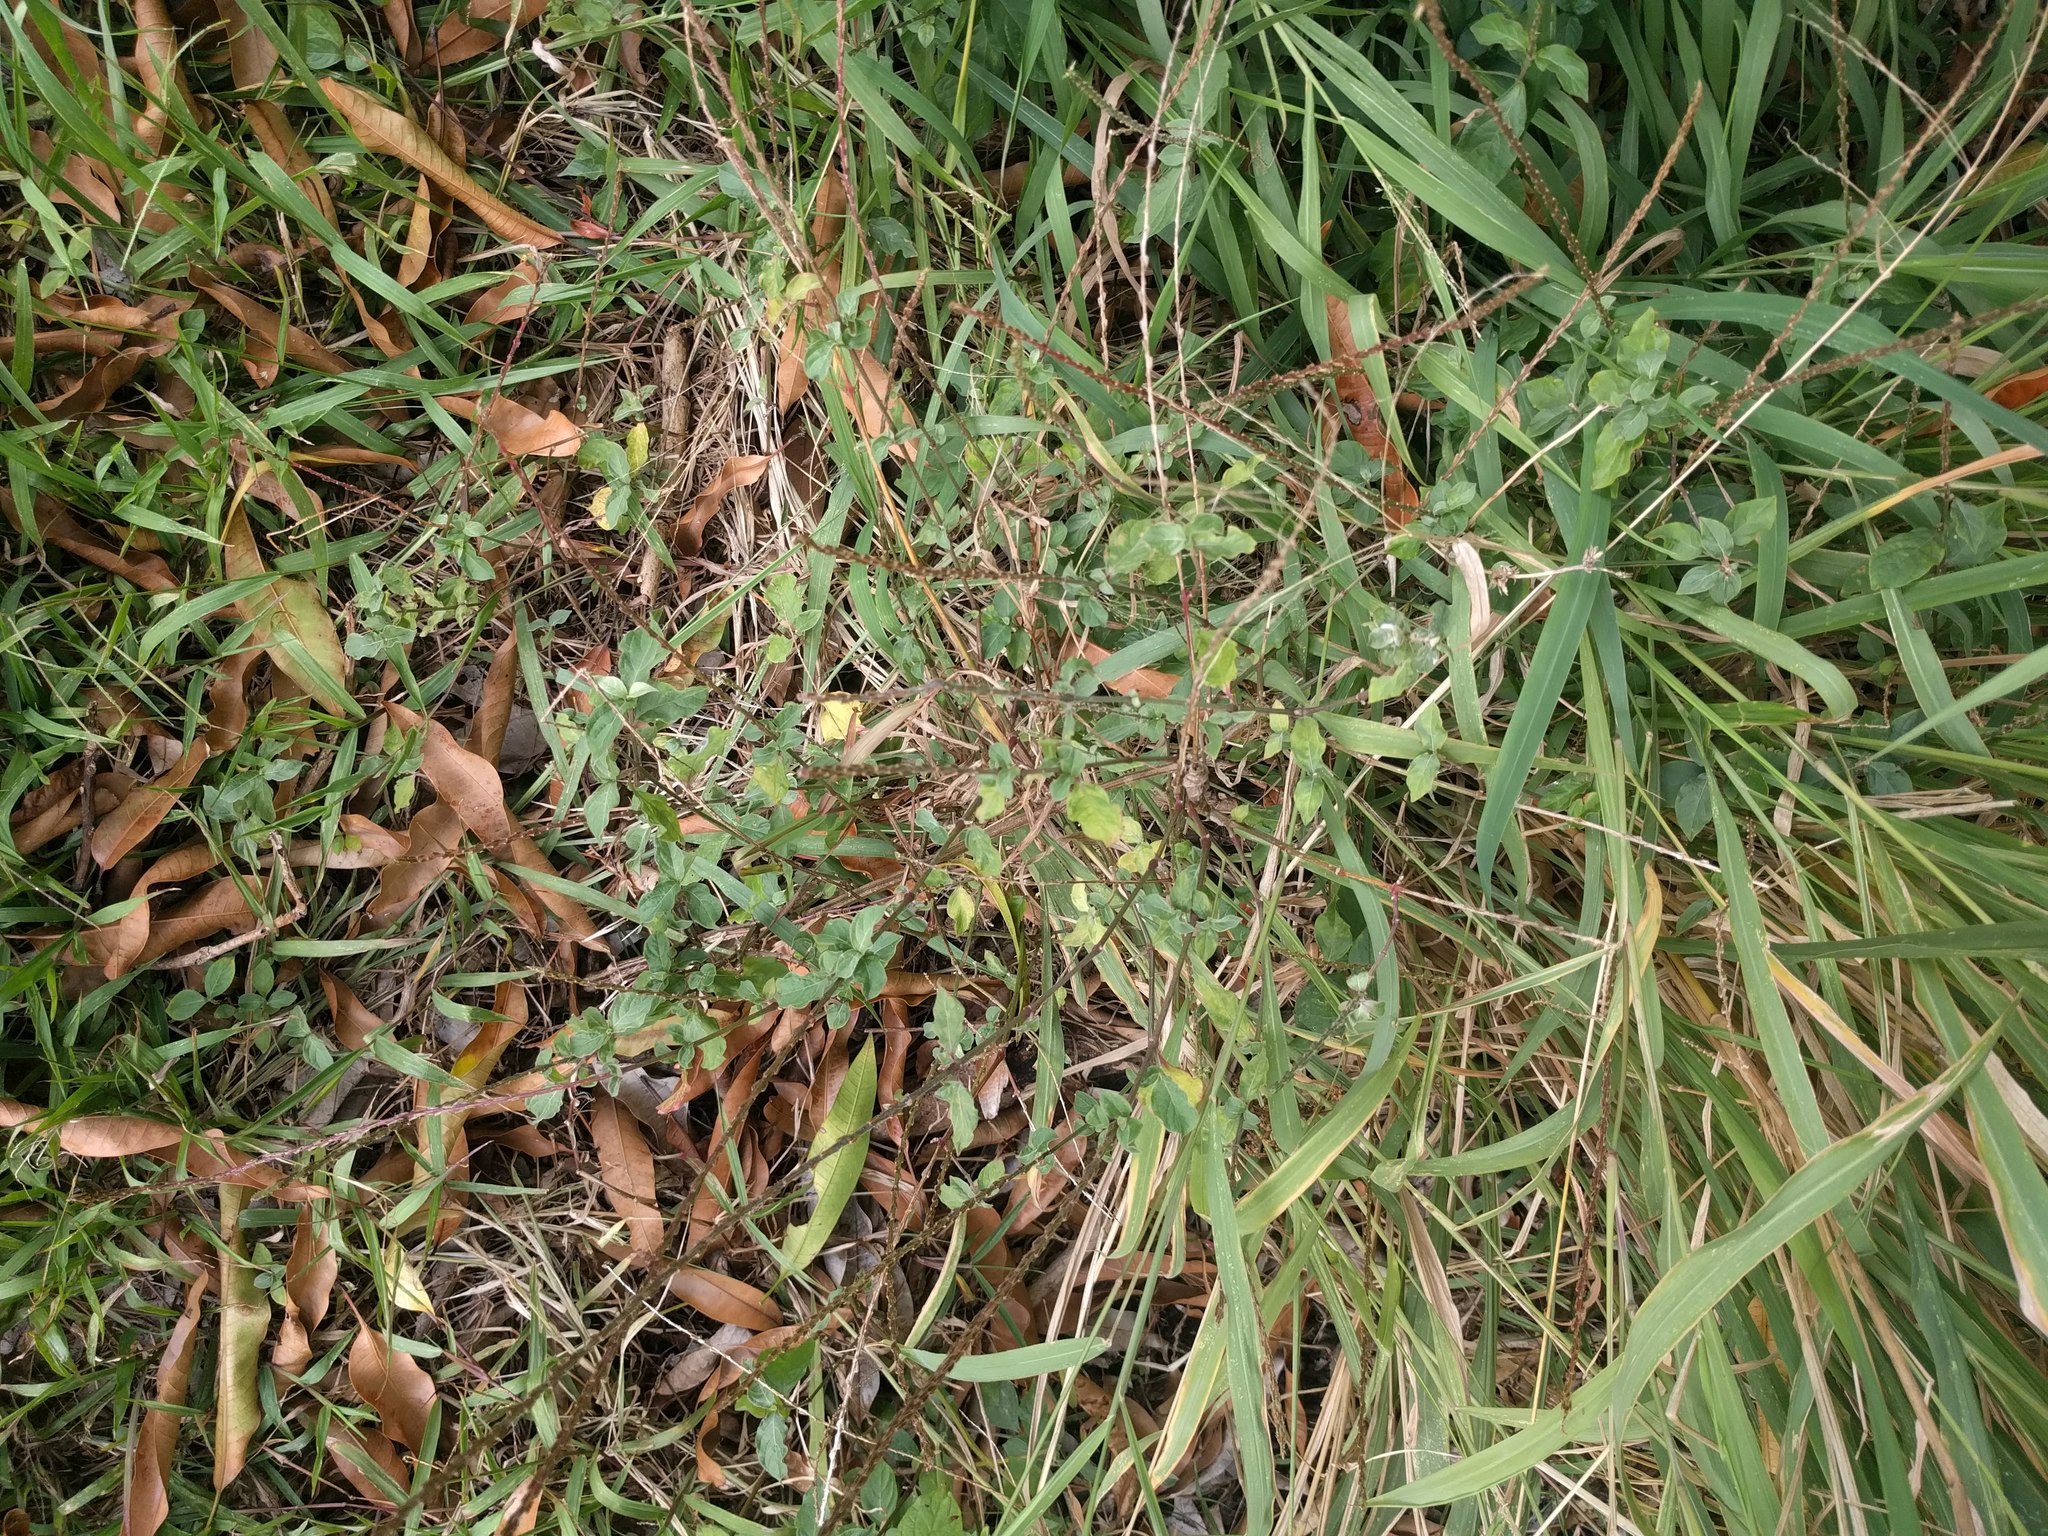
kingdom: Plantae
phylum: Tracheophyta
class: Magnoliopsida
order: Caryophyllales
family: Amaranthaceae
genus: Achyranthes
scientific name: Achyranthes aspera
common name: Devil's horsewhip
